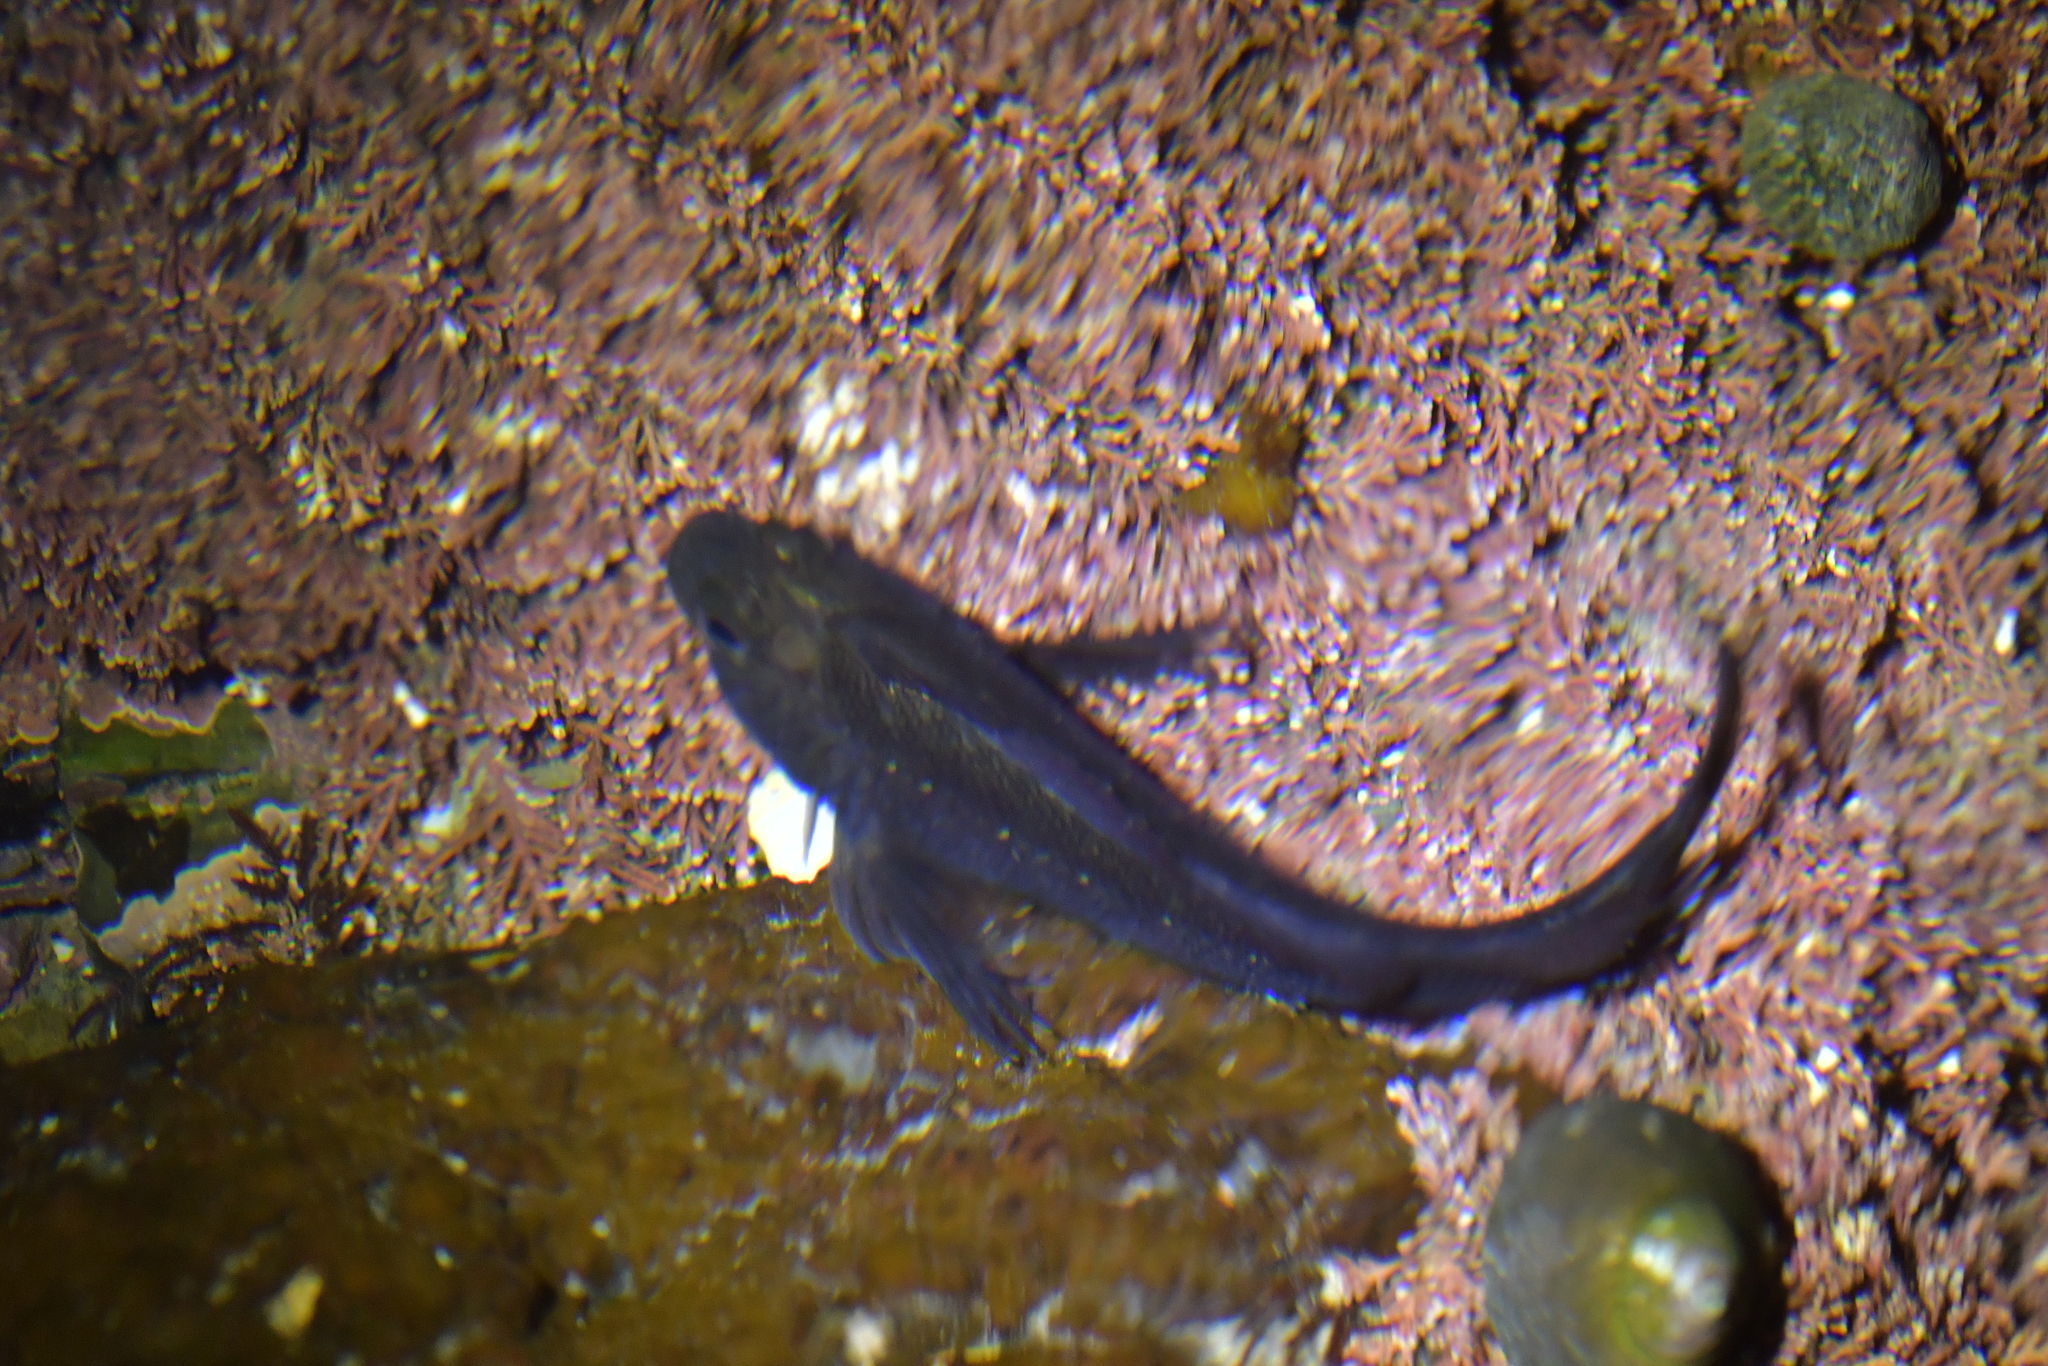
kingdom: Animalia
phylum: Chordata
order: Perciformes
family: Tripterygiidae
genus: Forsterygion
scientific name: Forsterygion lapillum
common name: Common triplefin
